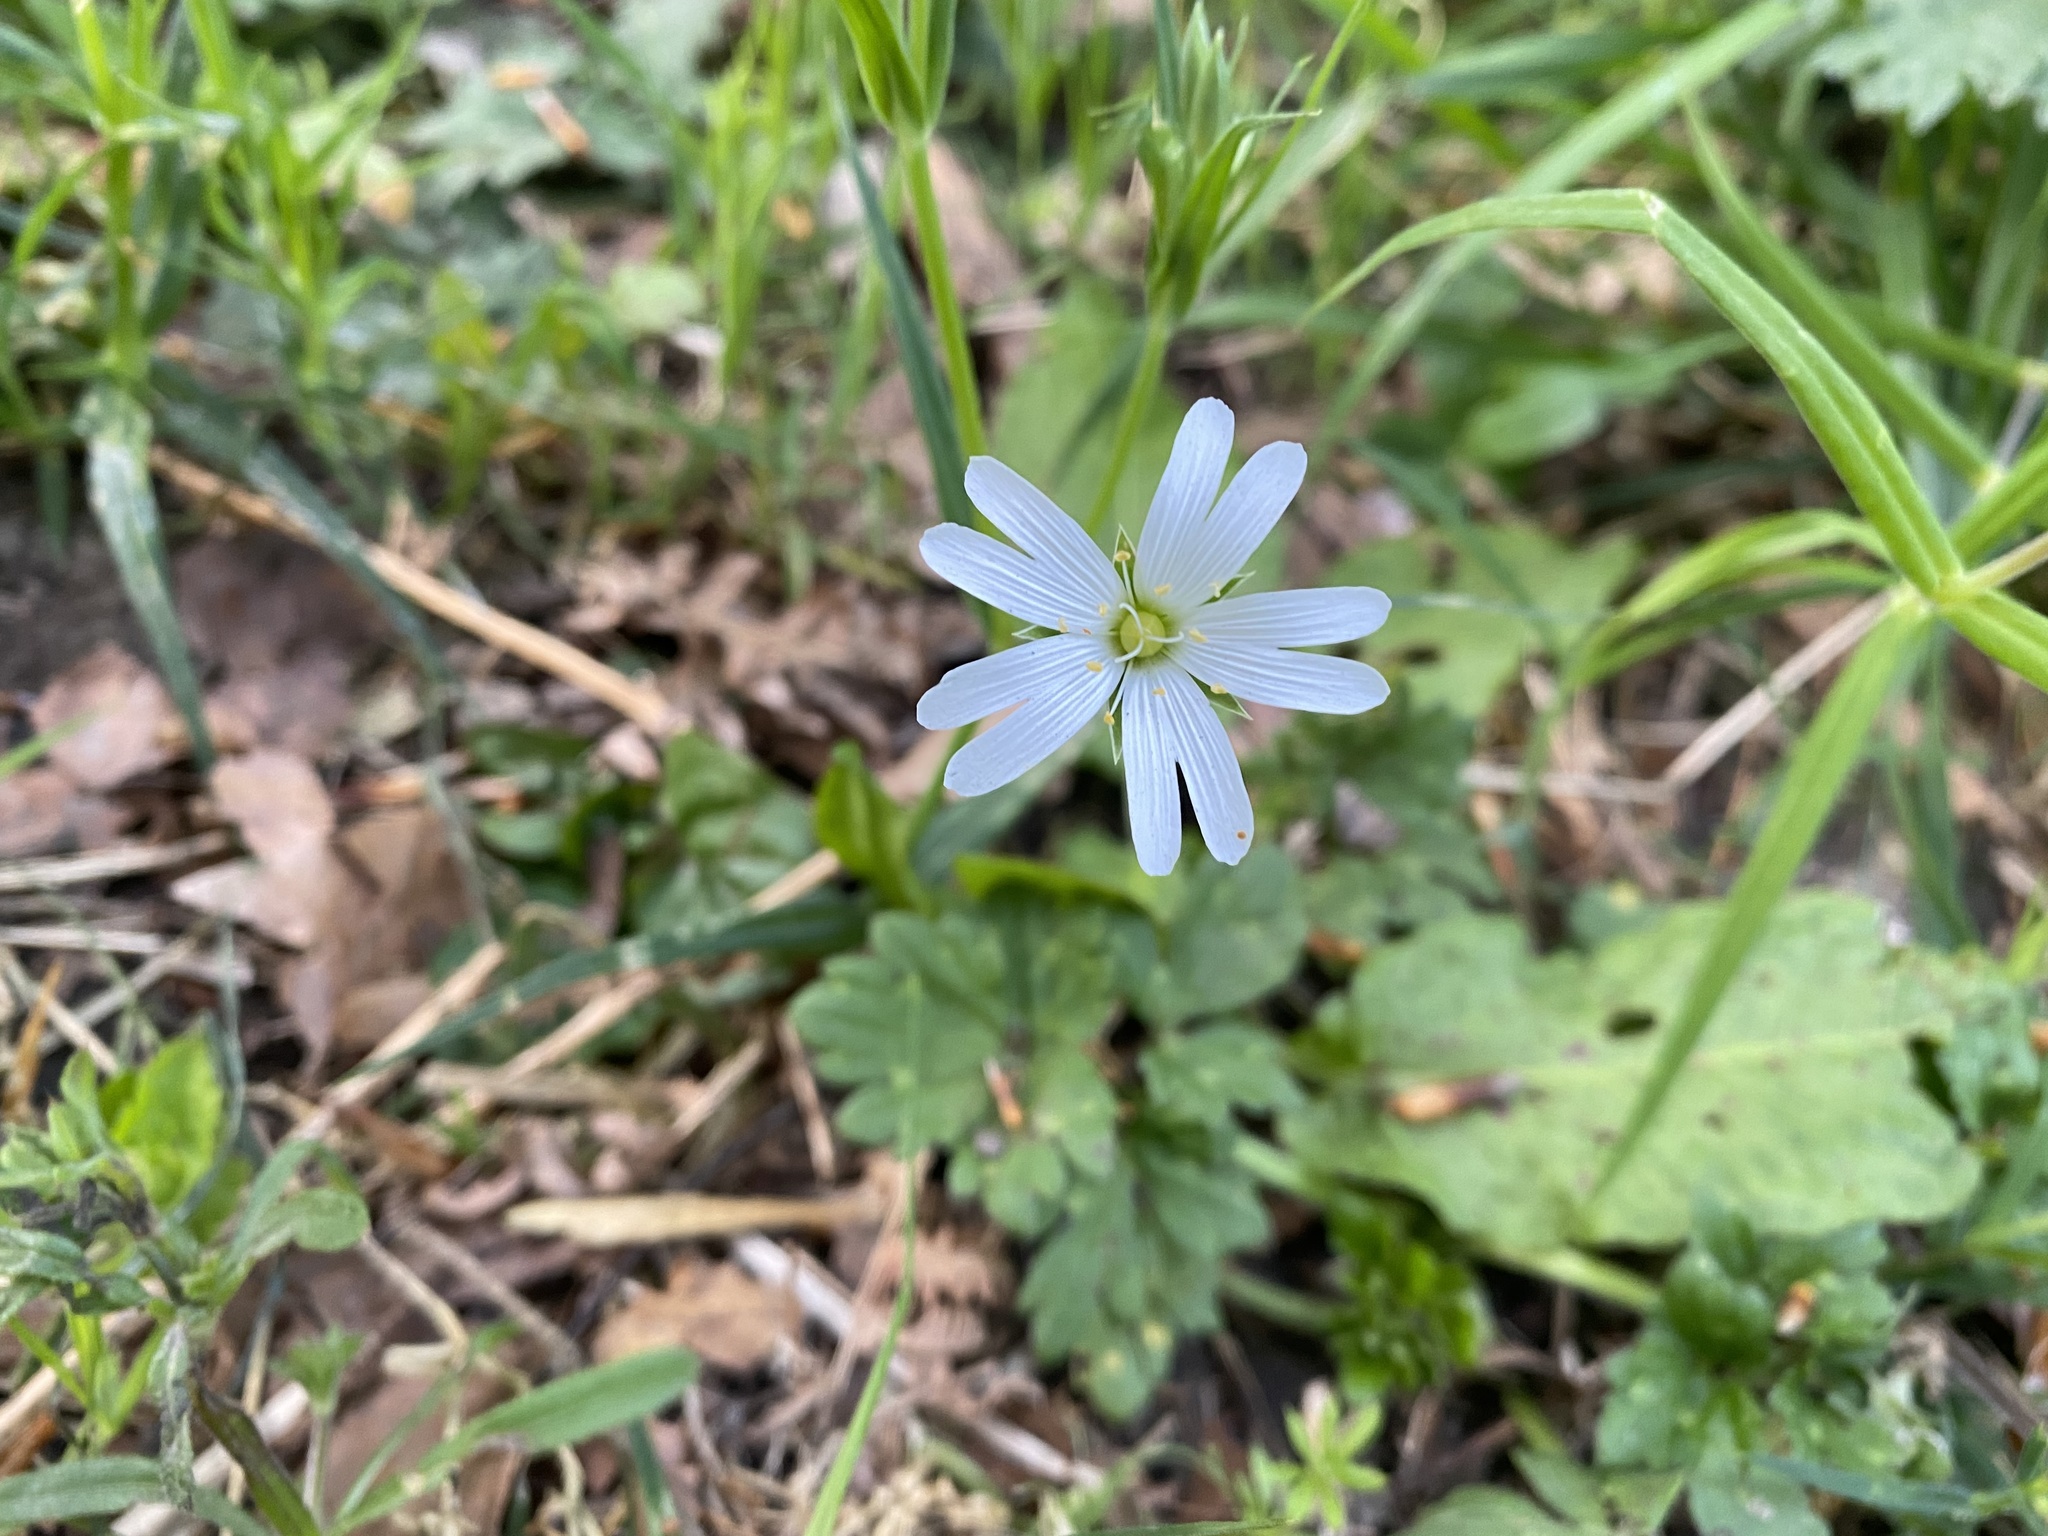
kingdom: Plantae
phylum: Tracheophyta
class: Magnoliopsida
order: Caryophyllales
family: Caryophyllaceae
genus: Rabelera
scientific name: Rabelera holostea
